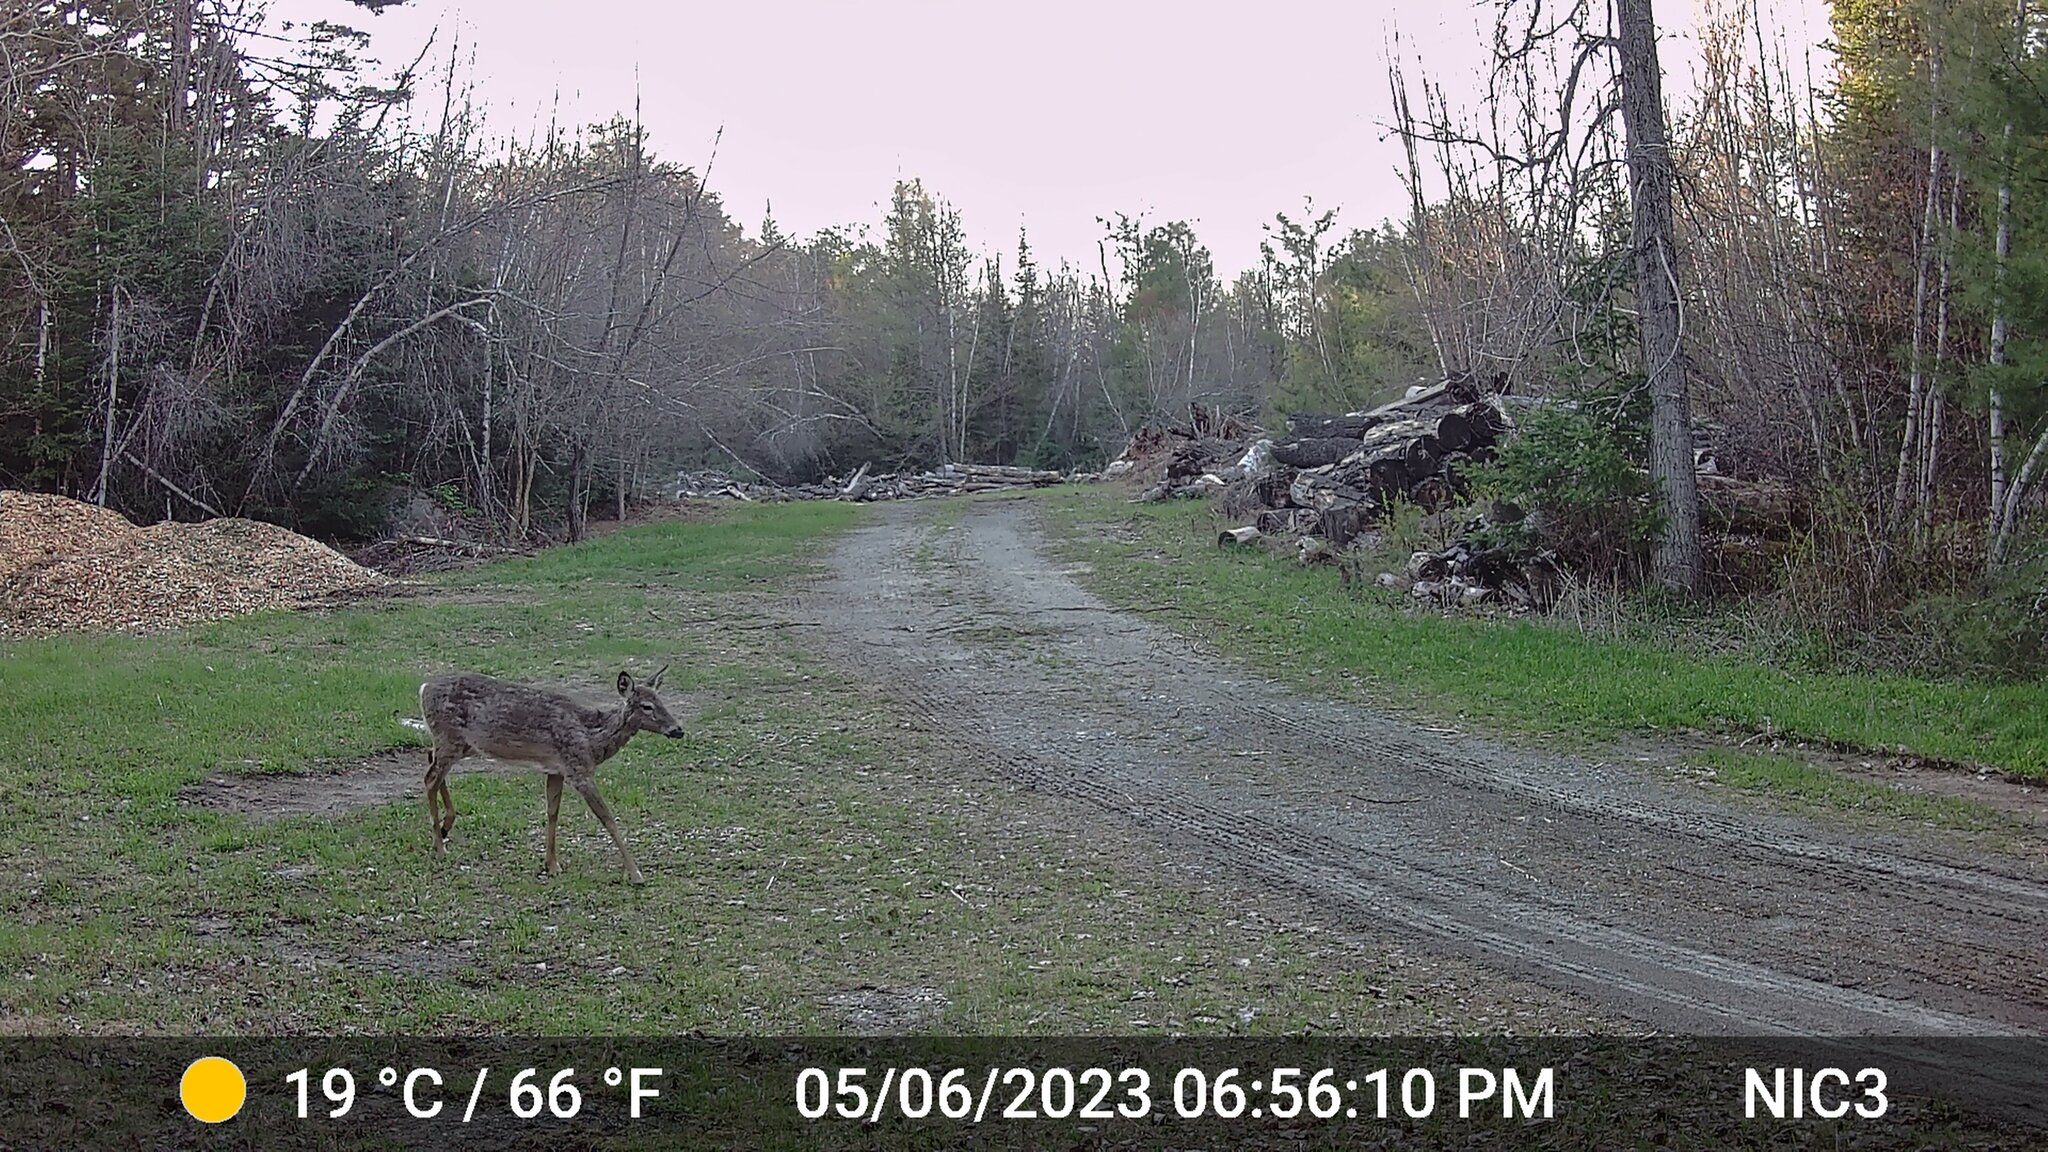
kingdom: Animalia
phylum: Chordata
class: Mammalia
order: Artiodactyla
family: Cervidae
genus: Odocoileus
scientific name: Odocoileus virginianus
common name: White-tailed deer
